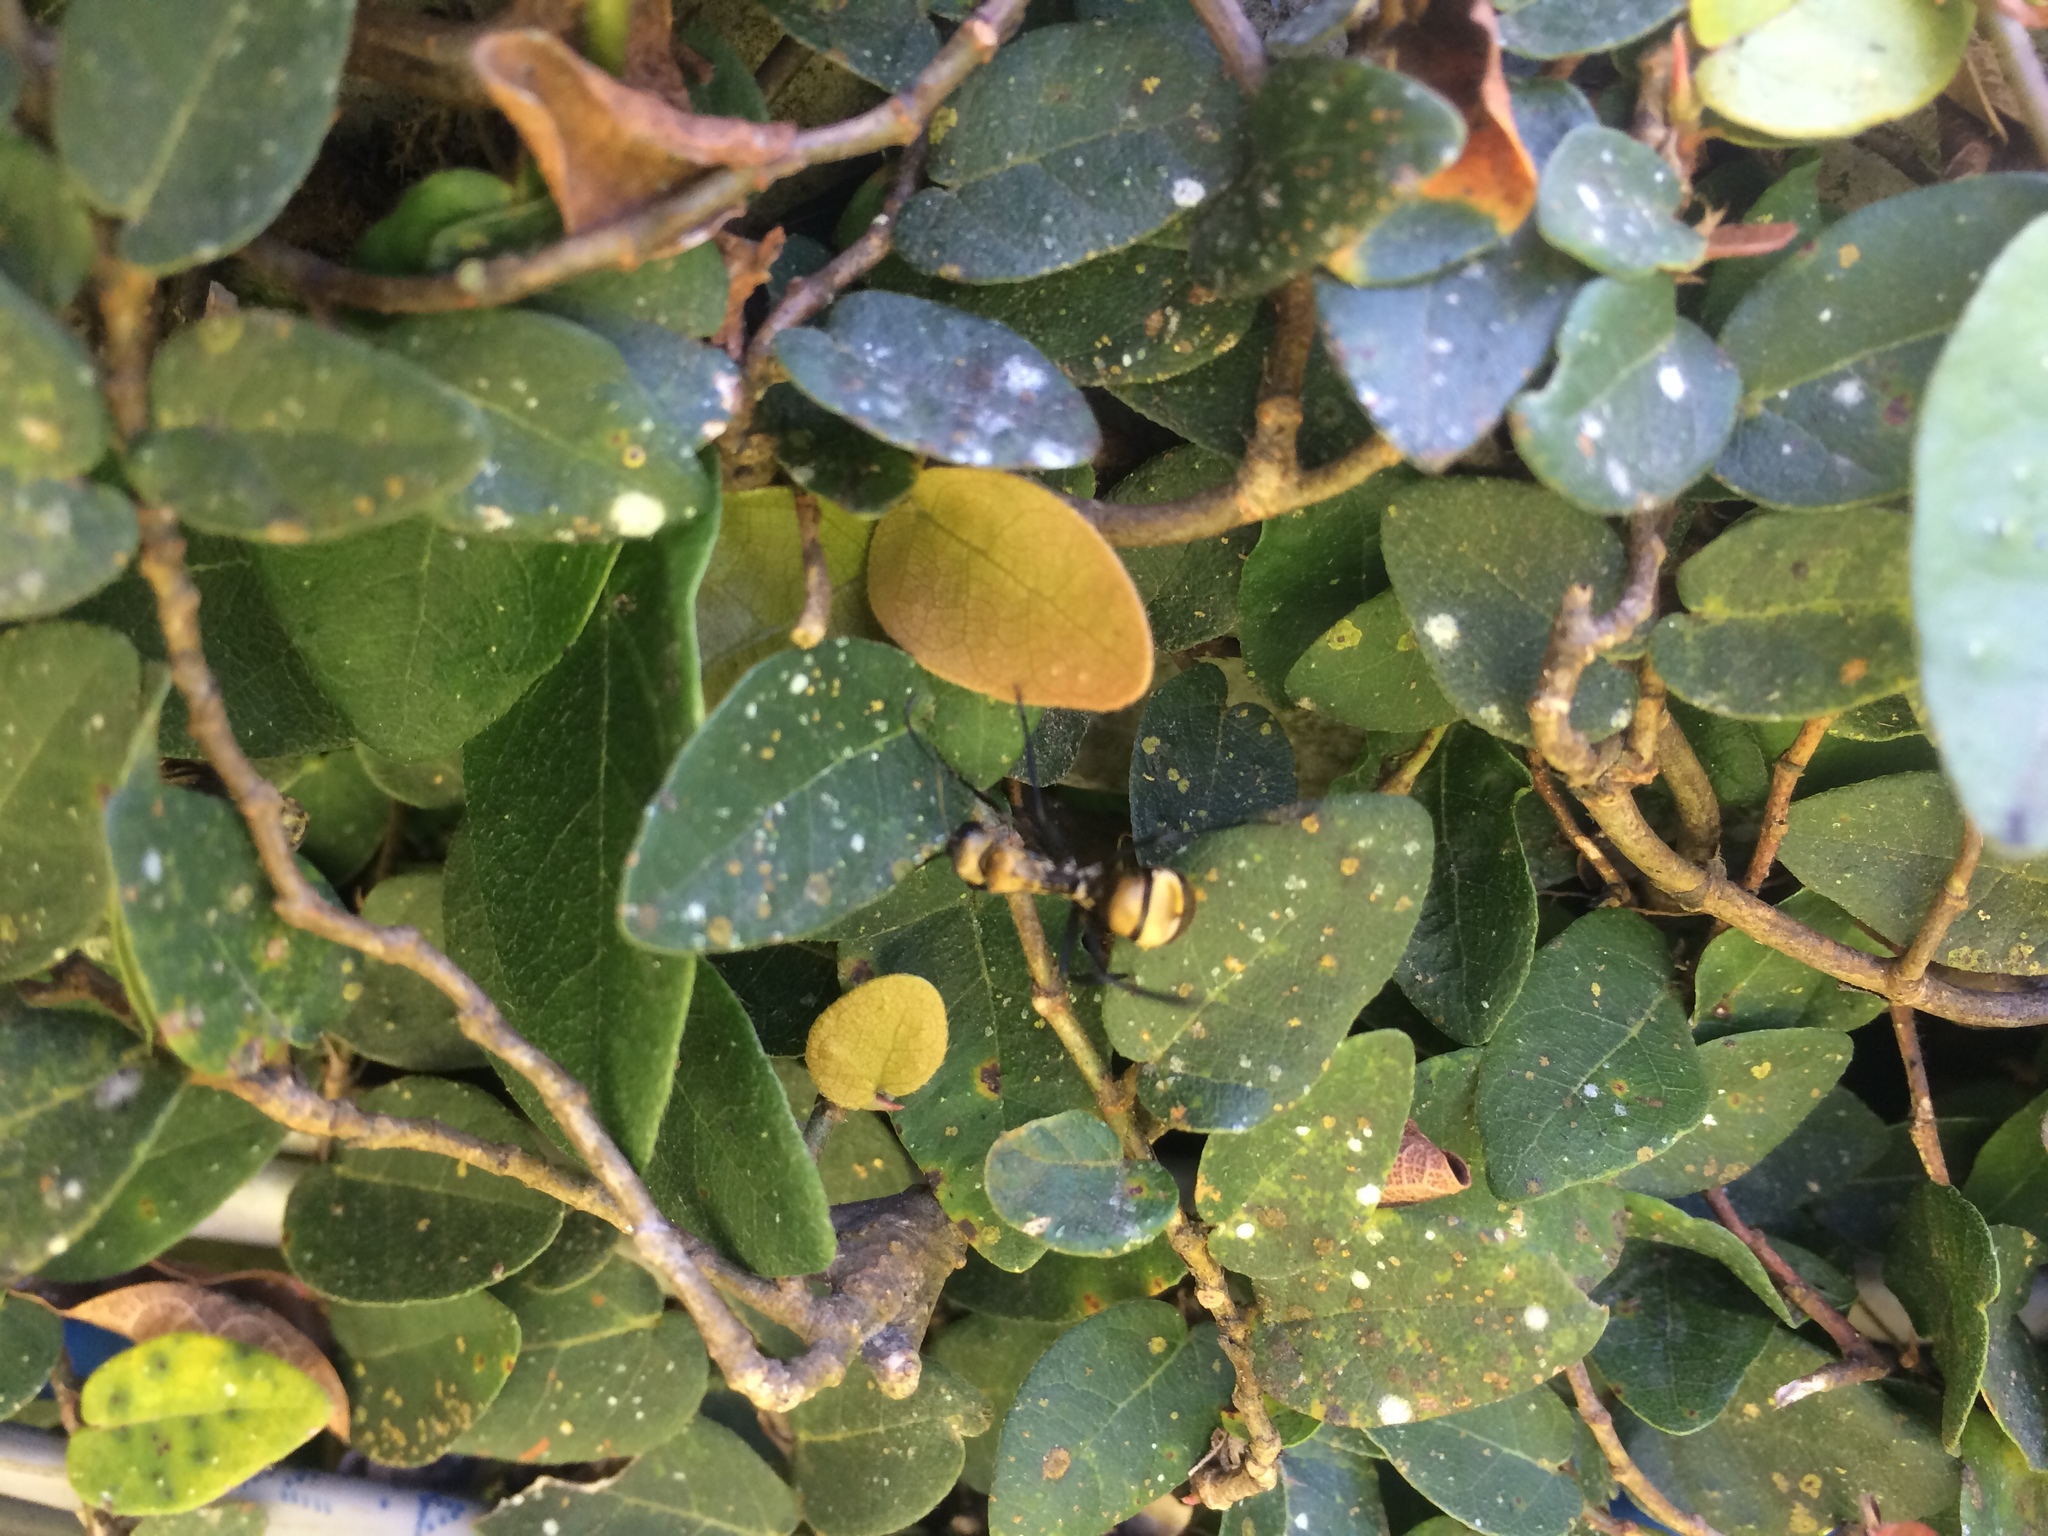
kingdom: Animalia
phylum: Arthropoda
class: Insecta
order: Hymenoptera
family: Formicidae
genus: Camponotus
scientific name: Camponotus sericeiventris
